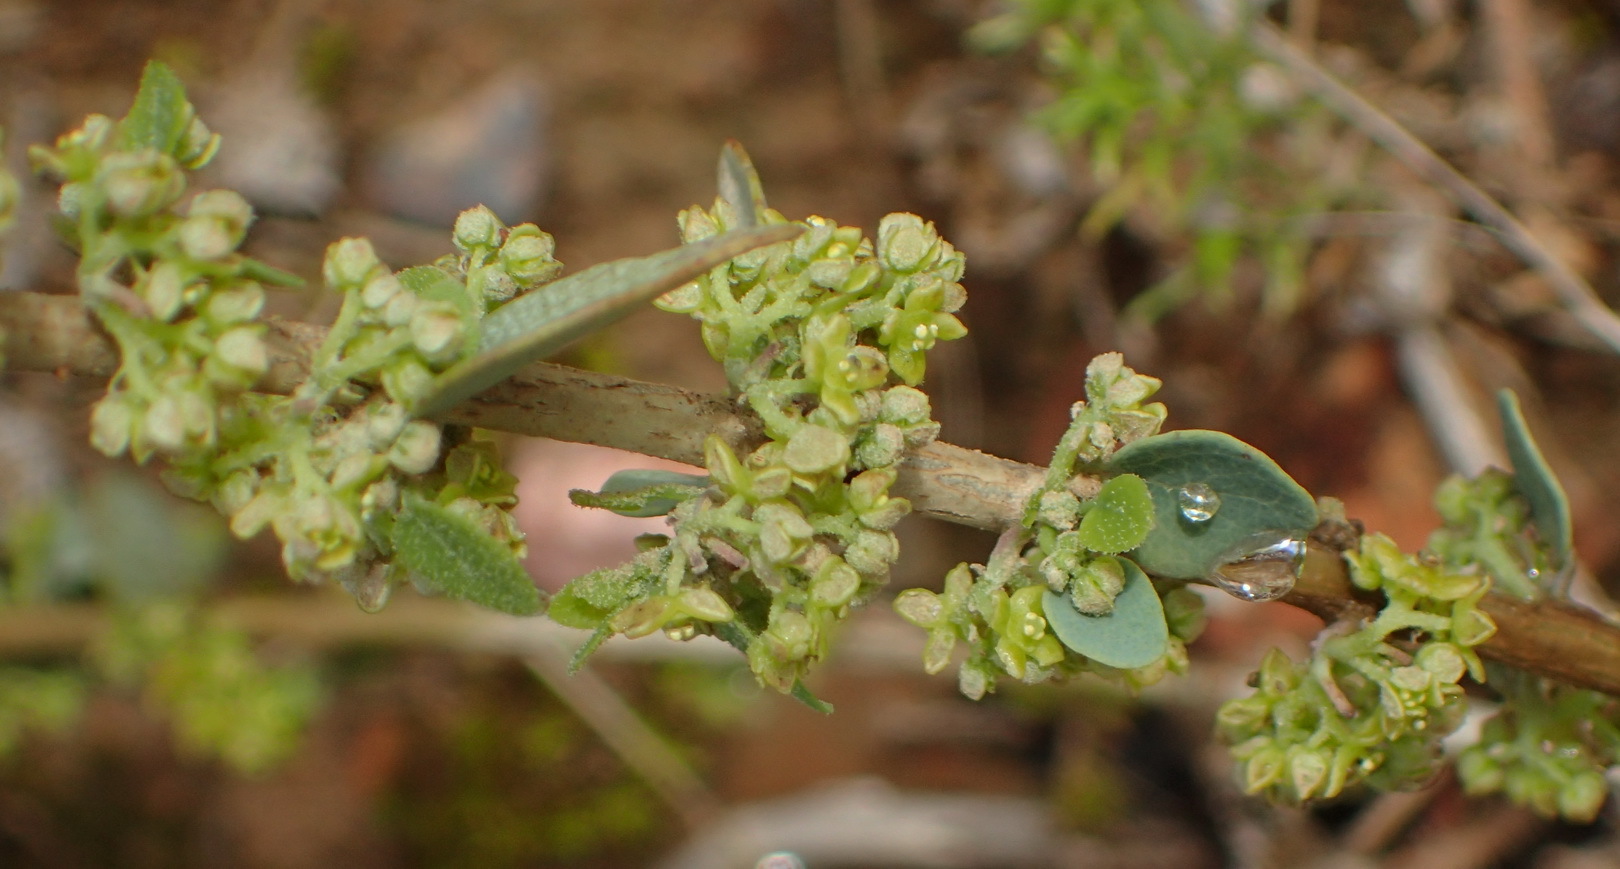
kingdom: Plantae
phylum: Tracheophyta
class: Magnoliopsida
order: Ranunculales
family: Menispermaceae
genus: Cissampelos
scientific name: Cissampelos capensis
